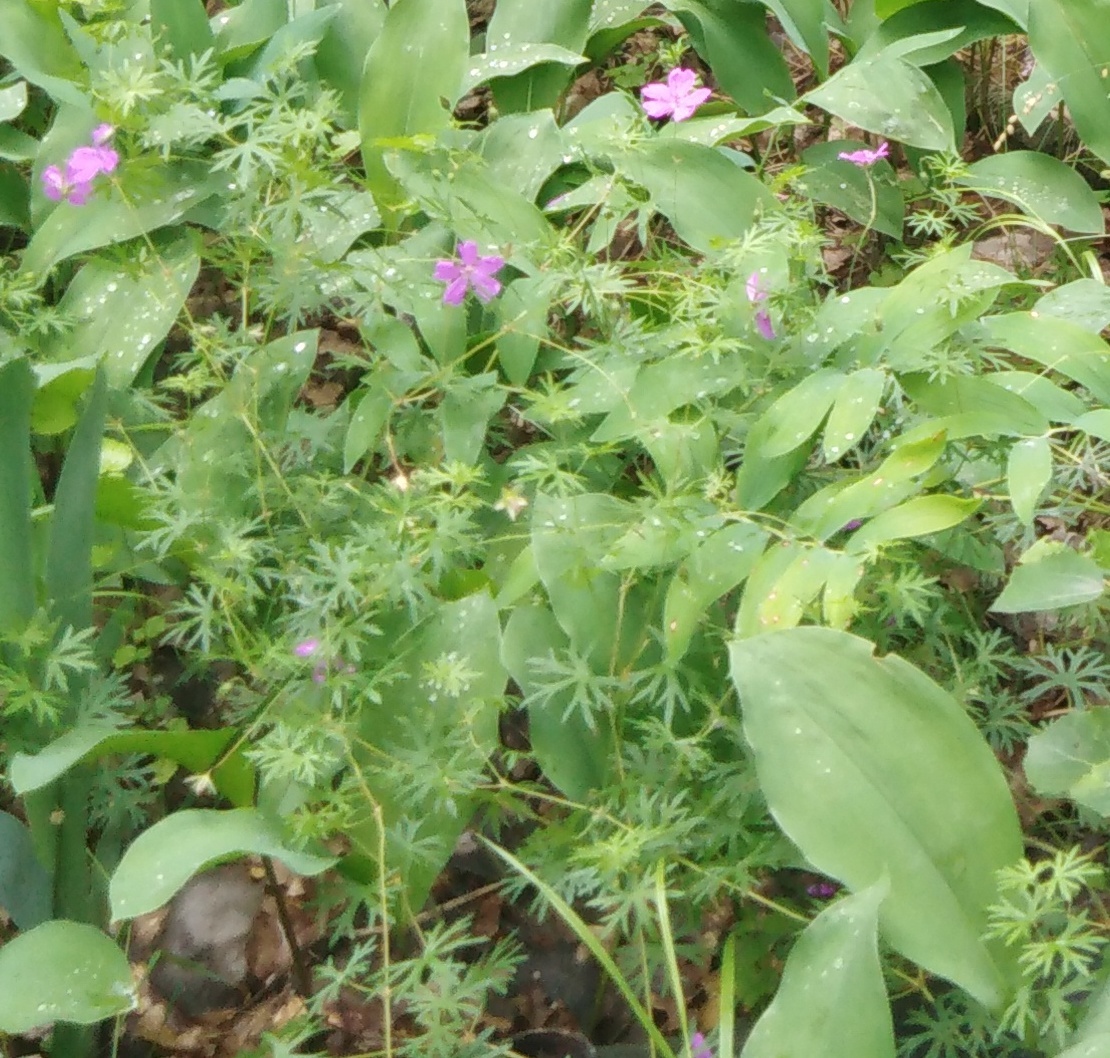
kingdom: Plantae
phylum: Tracheophyta
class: Magnoliopsida
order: Geraniales
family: Geraniaceae
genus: Geranium
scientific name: Geranium sanguineum
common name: Bloody crane's-bill
